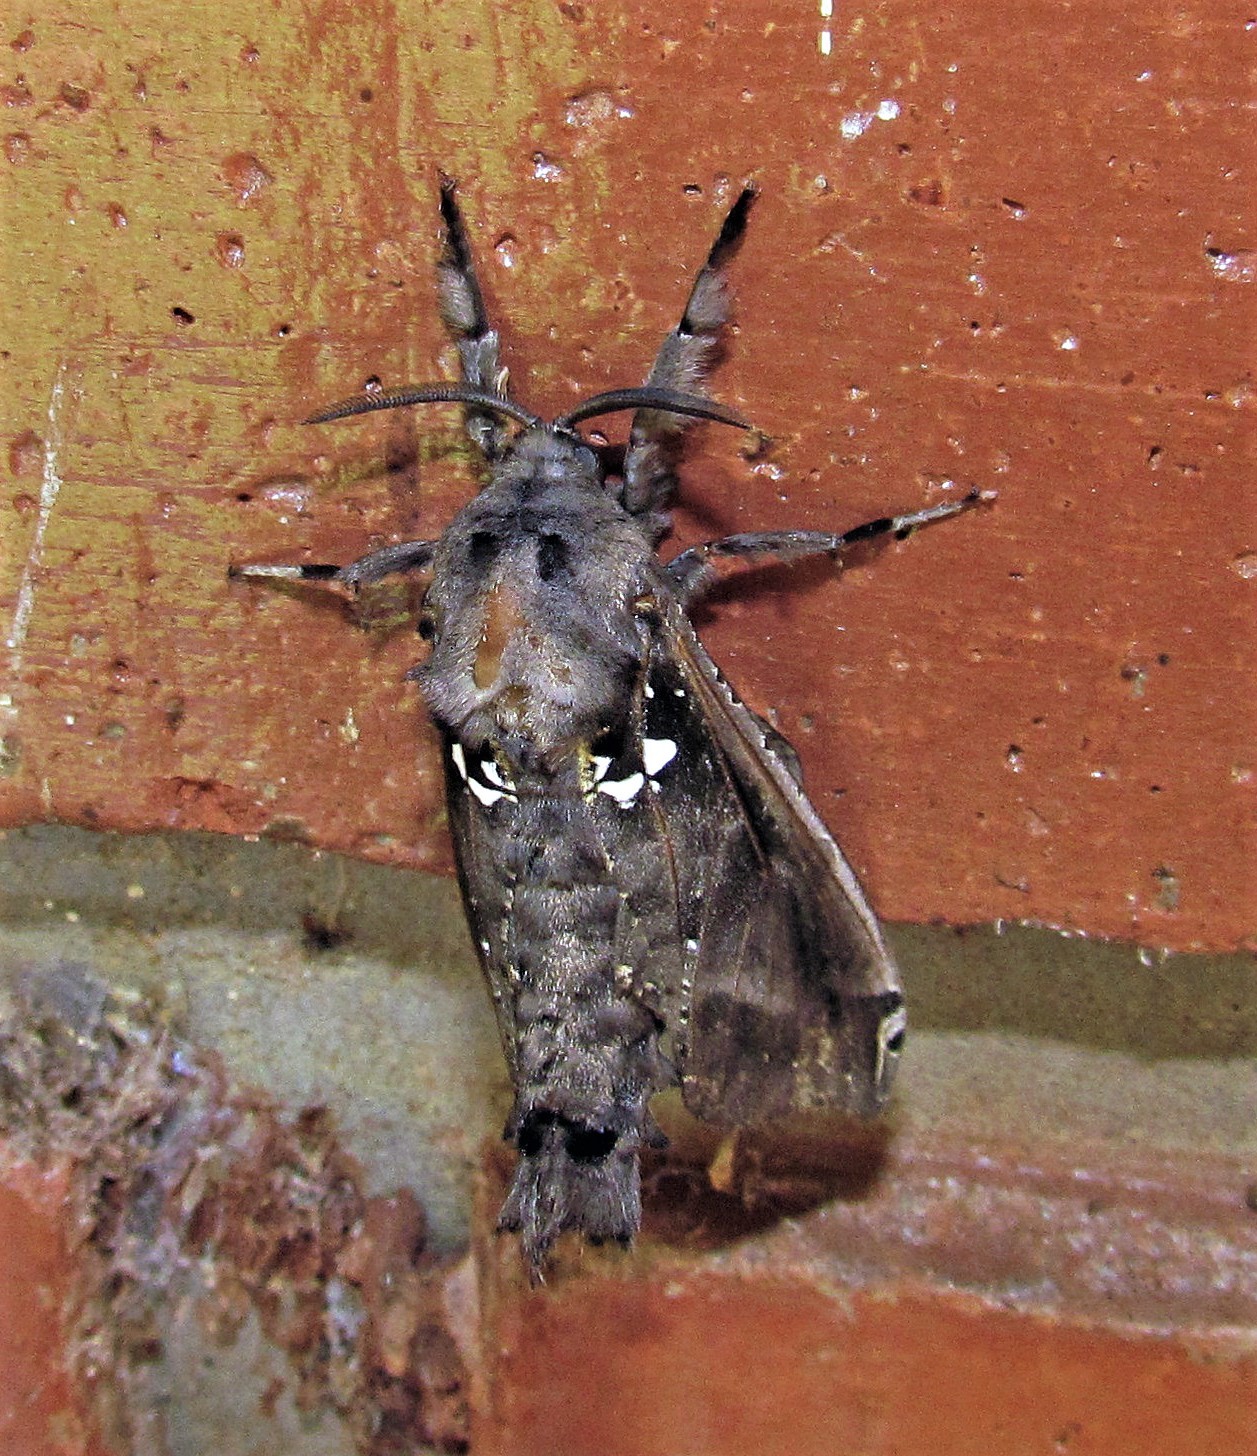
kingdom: Animalia
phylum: Arthropoda
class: Insecta
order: Lepidoptera
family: Cossidae
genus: Langsdorfia
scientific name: Langsdorfia franckii
